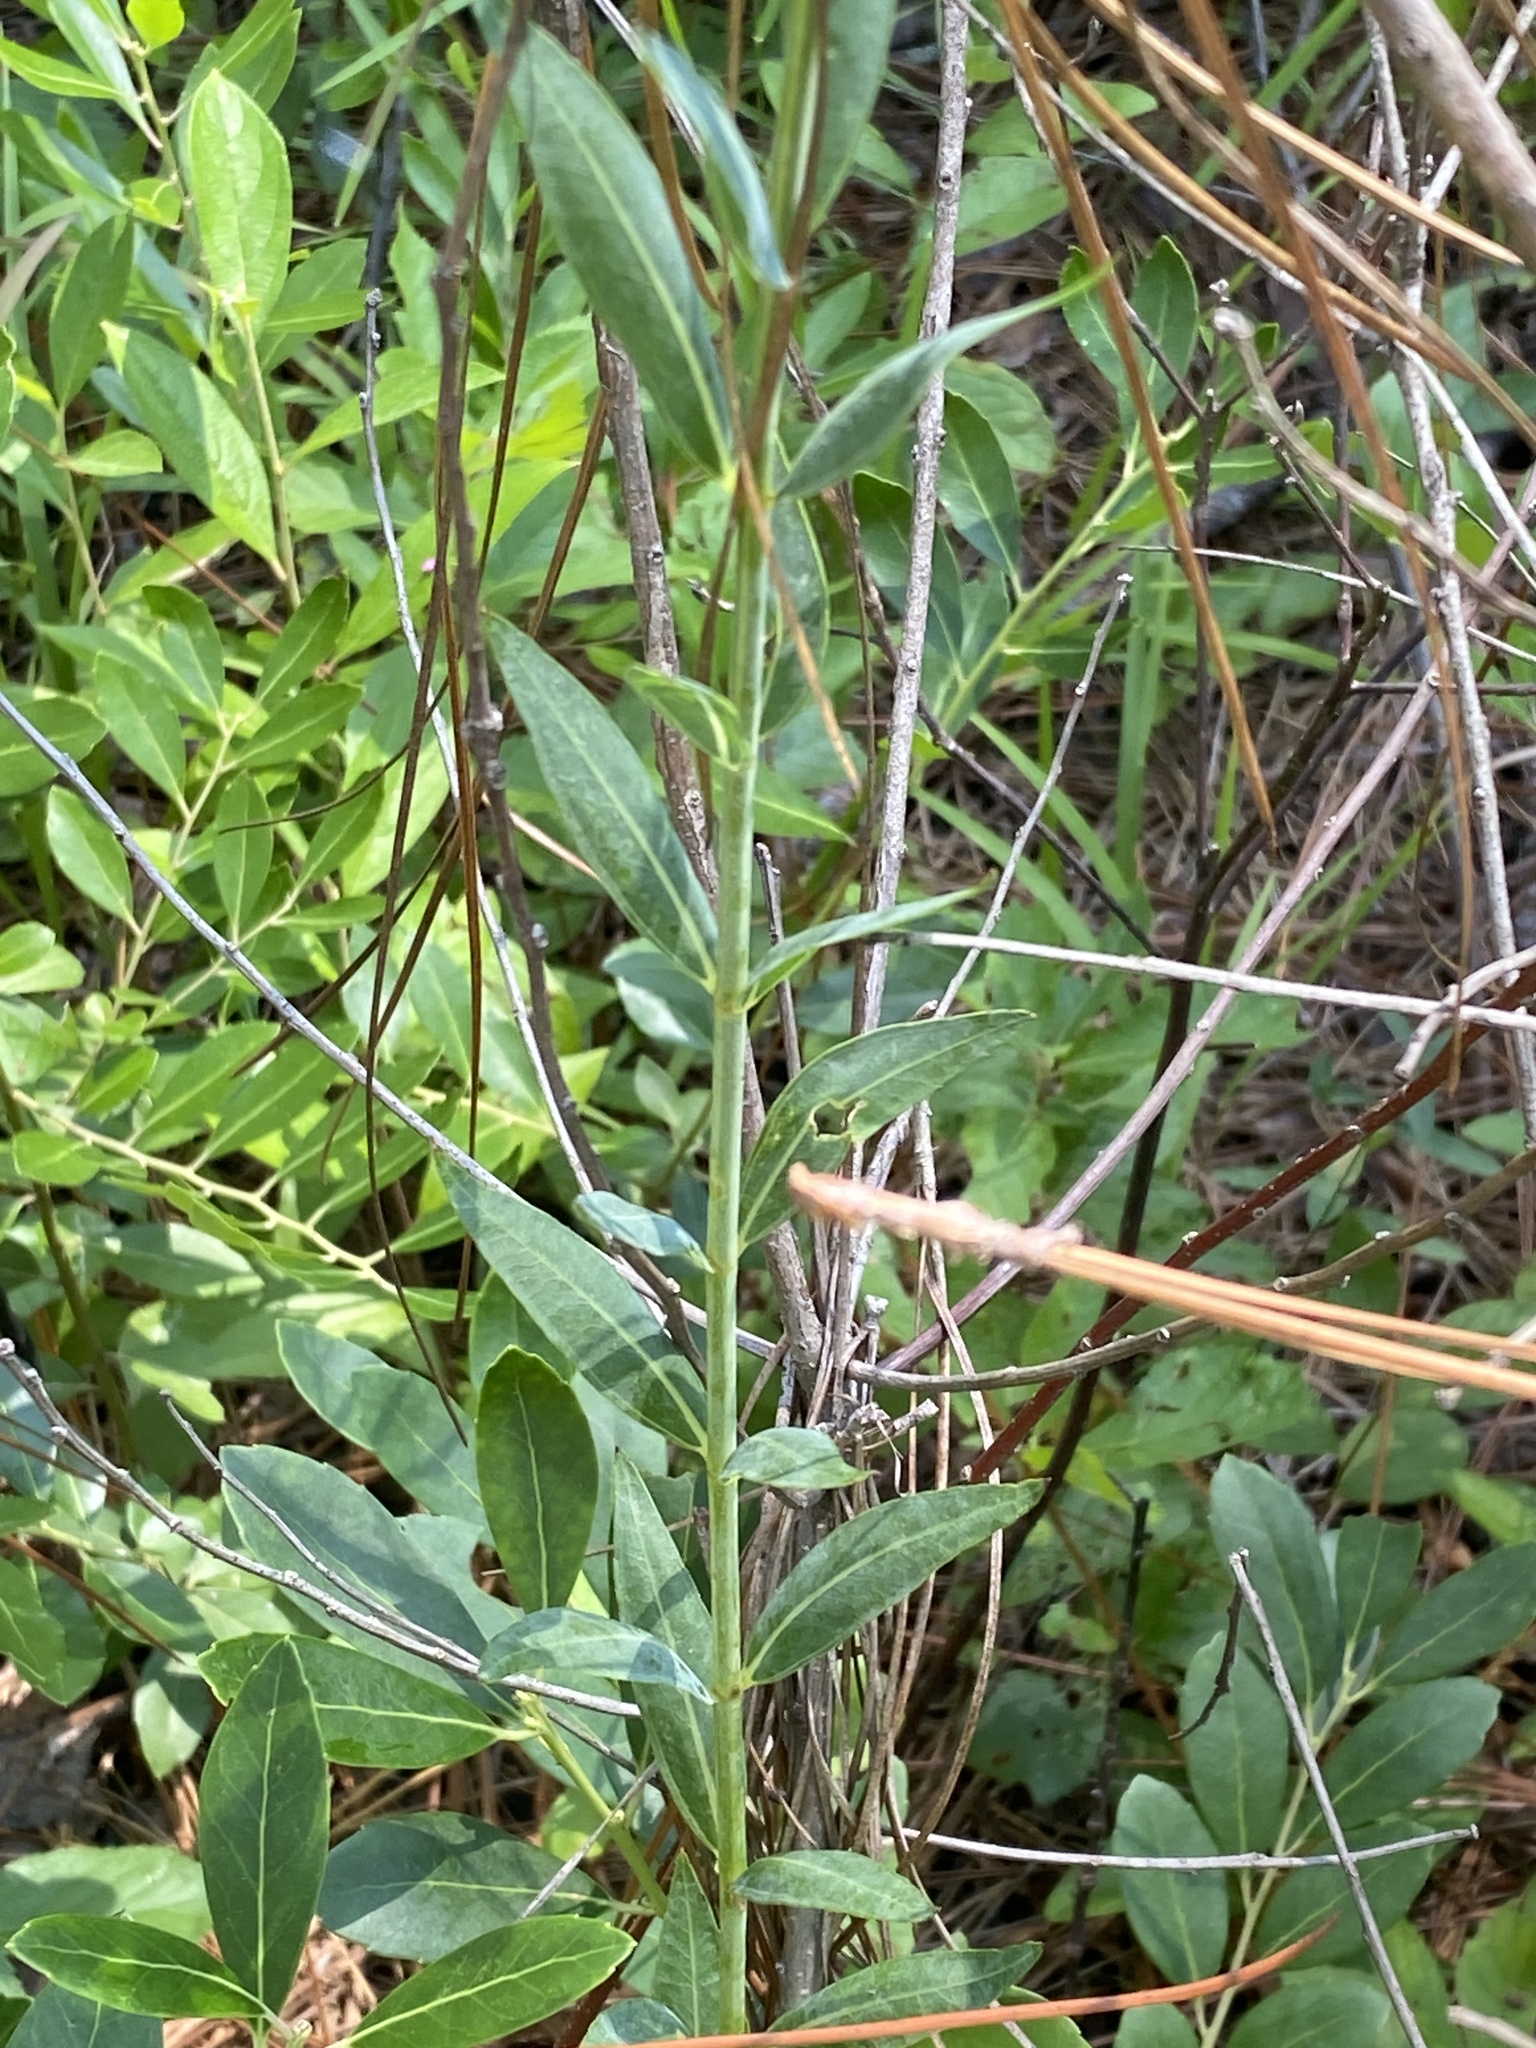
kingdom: Plantae
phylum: Tracheophyta
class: Magnoliopsida
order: Myrtales
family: Melastomataceae
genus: Rhexia
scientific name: Rhexia alifanus
